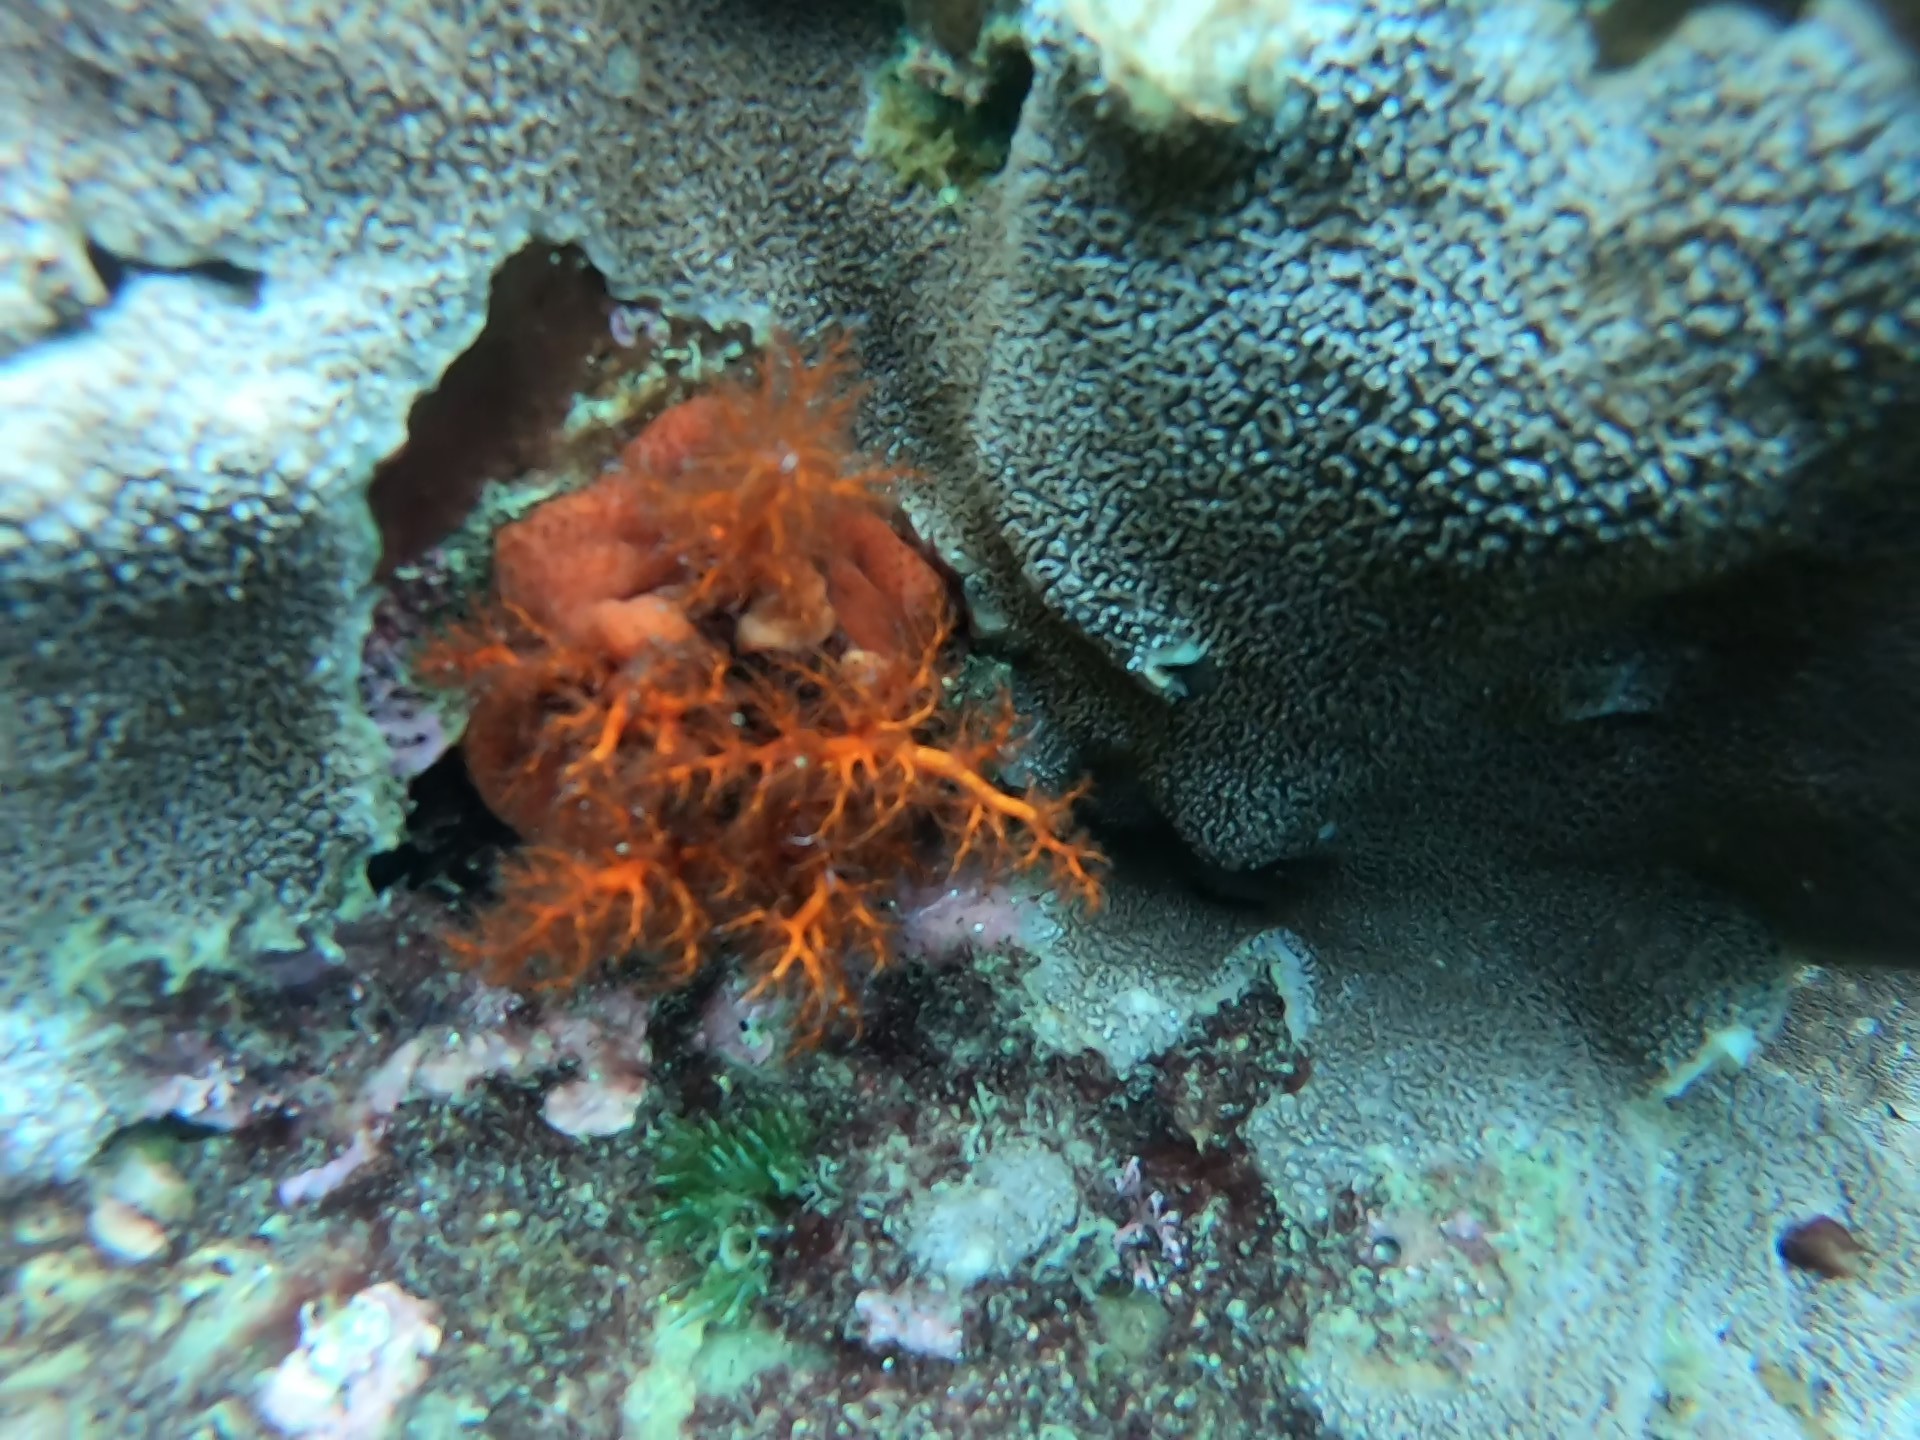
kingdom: Animalia
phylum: Echinodermata
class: Holothuroidea
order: Dendrochirotida
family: Cucumariidae
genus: Cucumaria
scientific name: Cucumaria flamma
